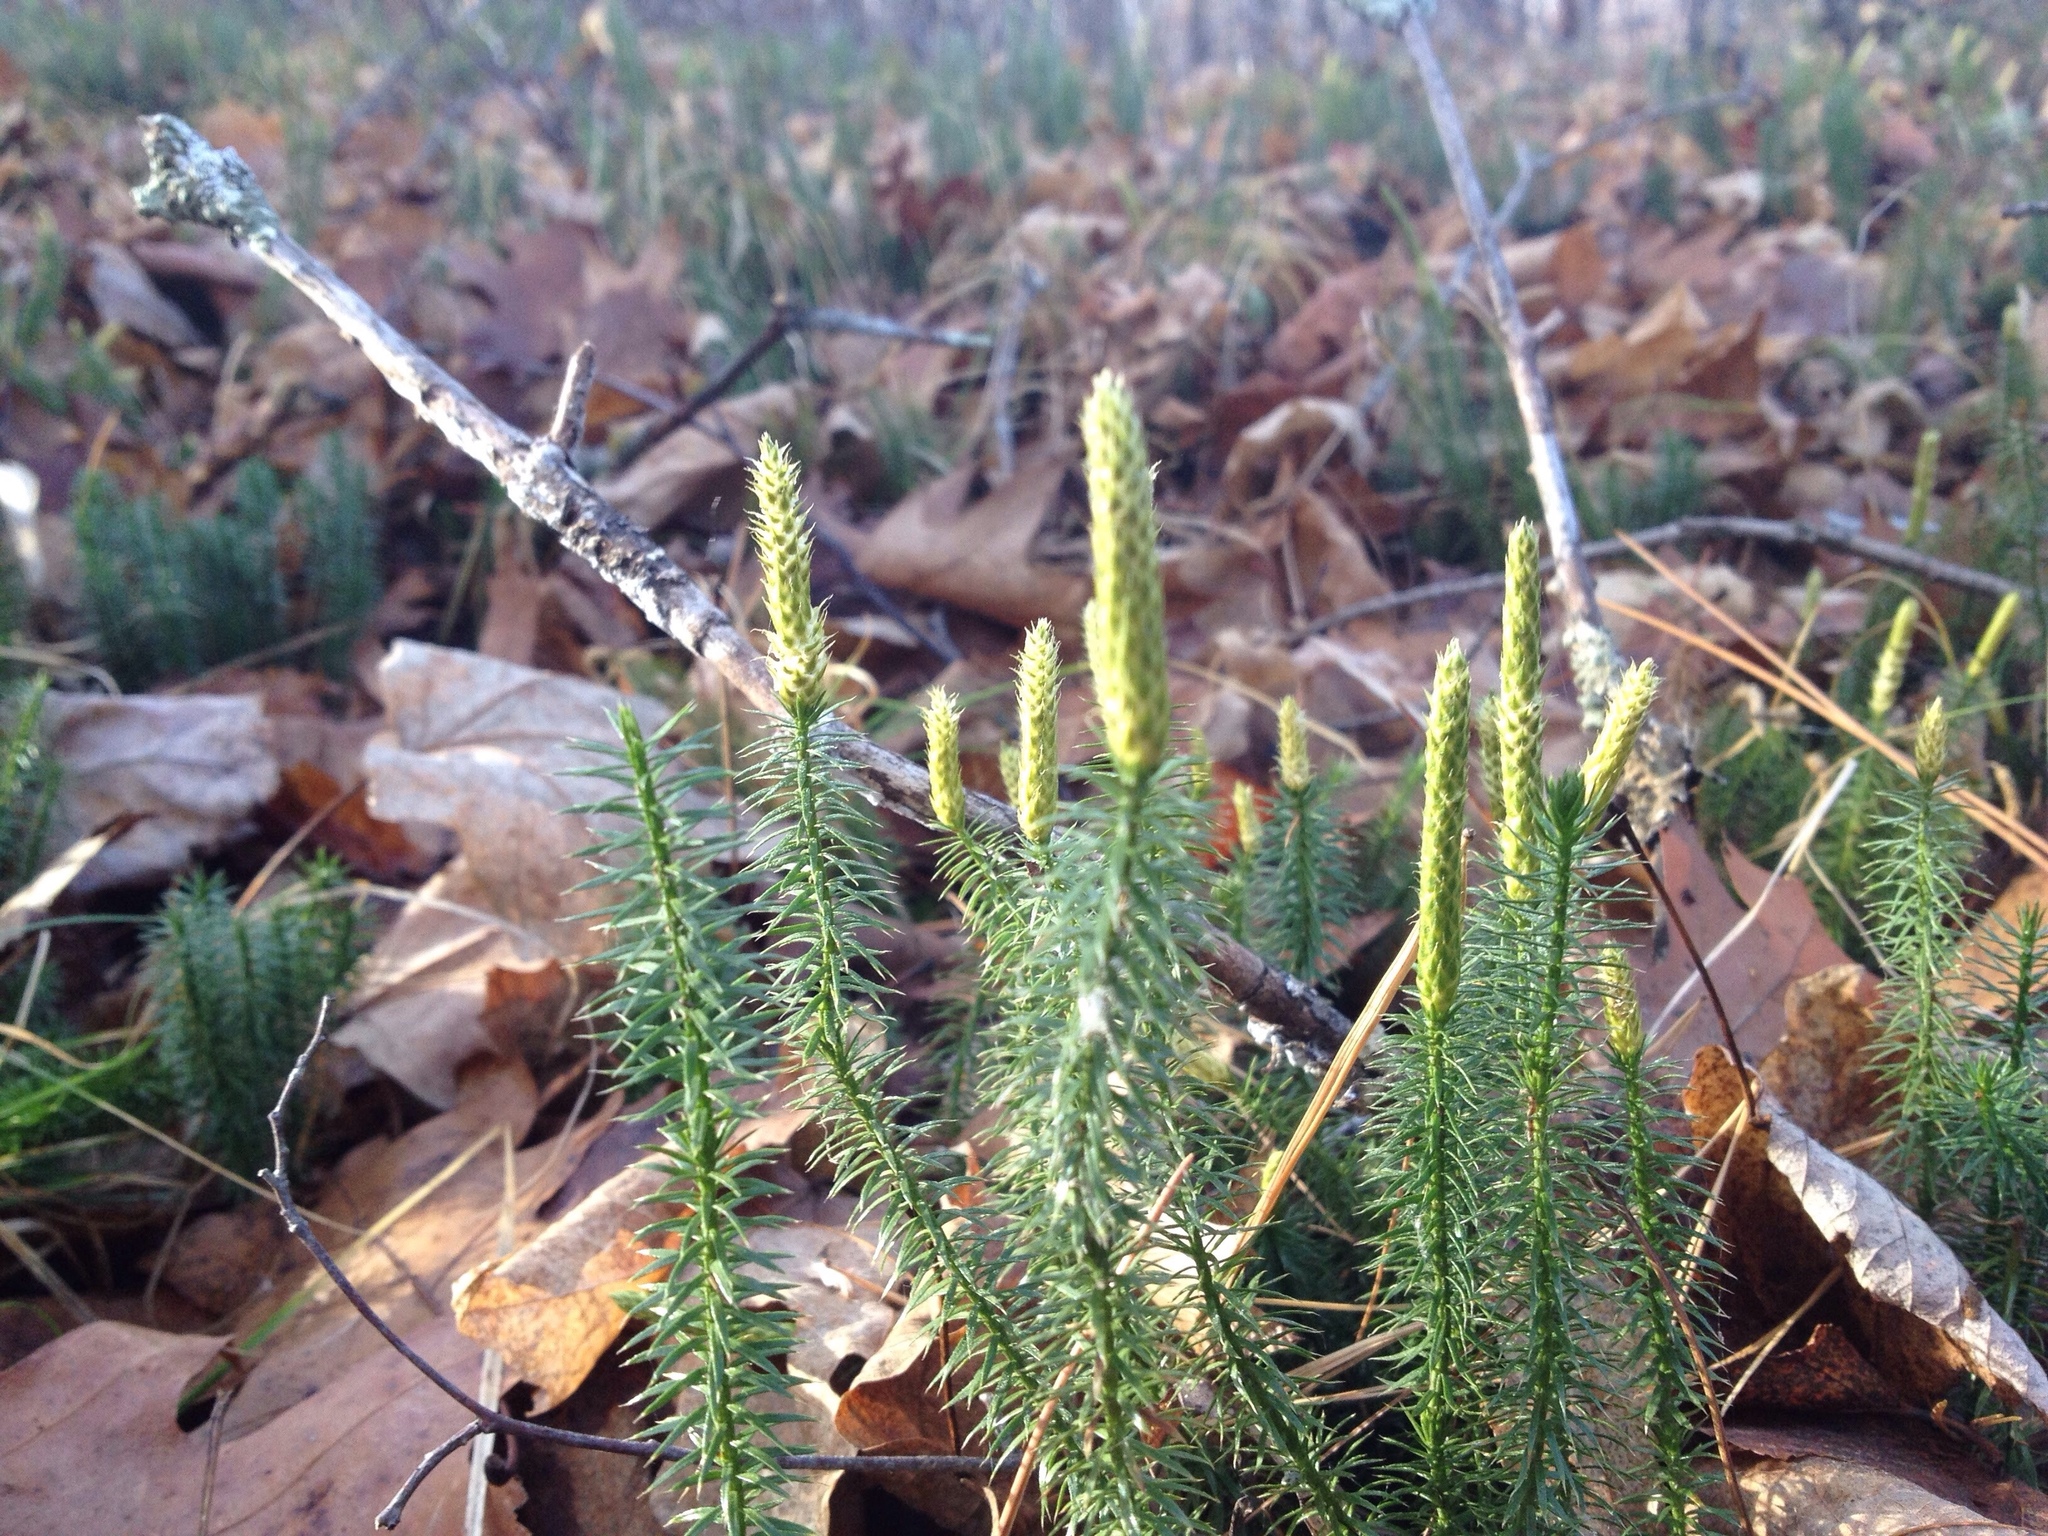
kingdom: Plantae
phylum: Tracheophyta
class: Lycopodiopsida
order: Lycopodiales
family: Lycopodiaceae
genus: Spinulum
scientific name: Spinulum annotinum
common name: Interrupted club-moss
